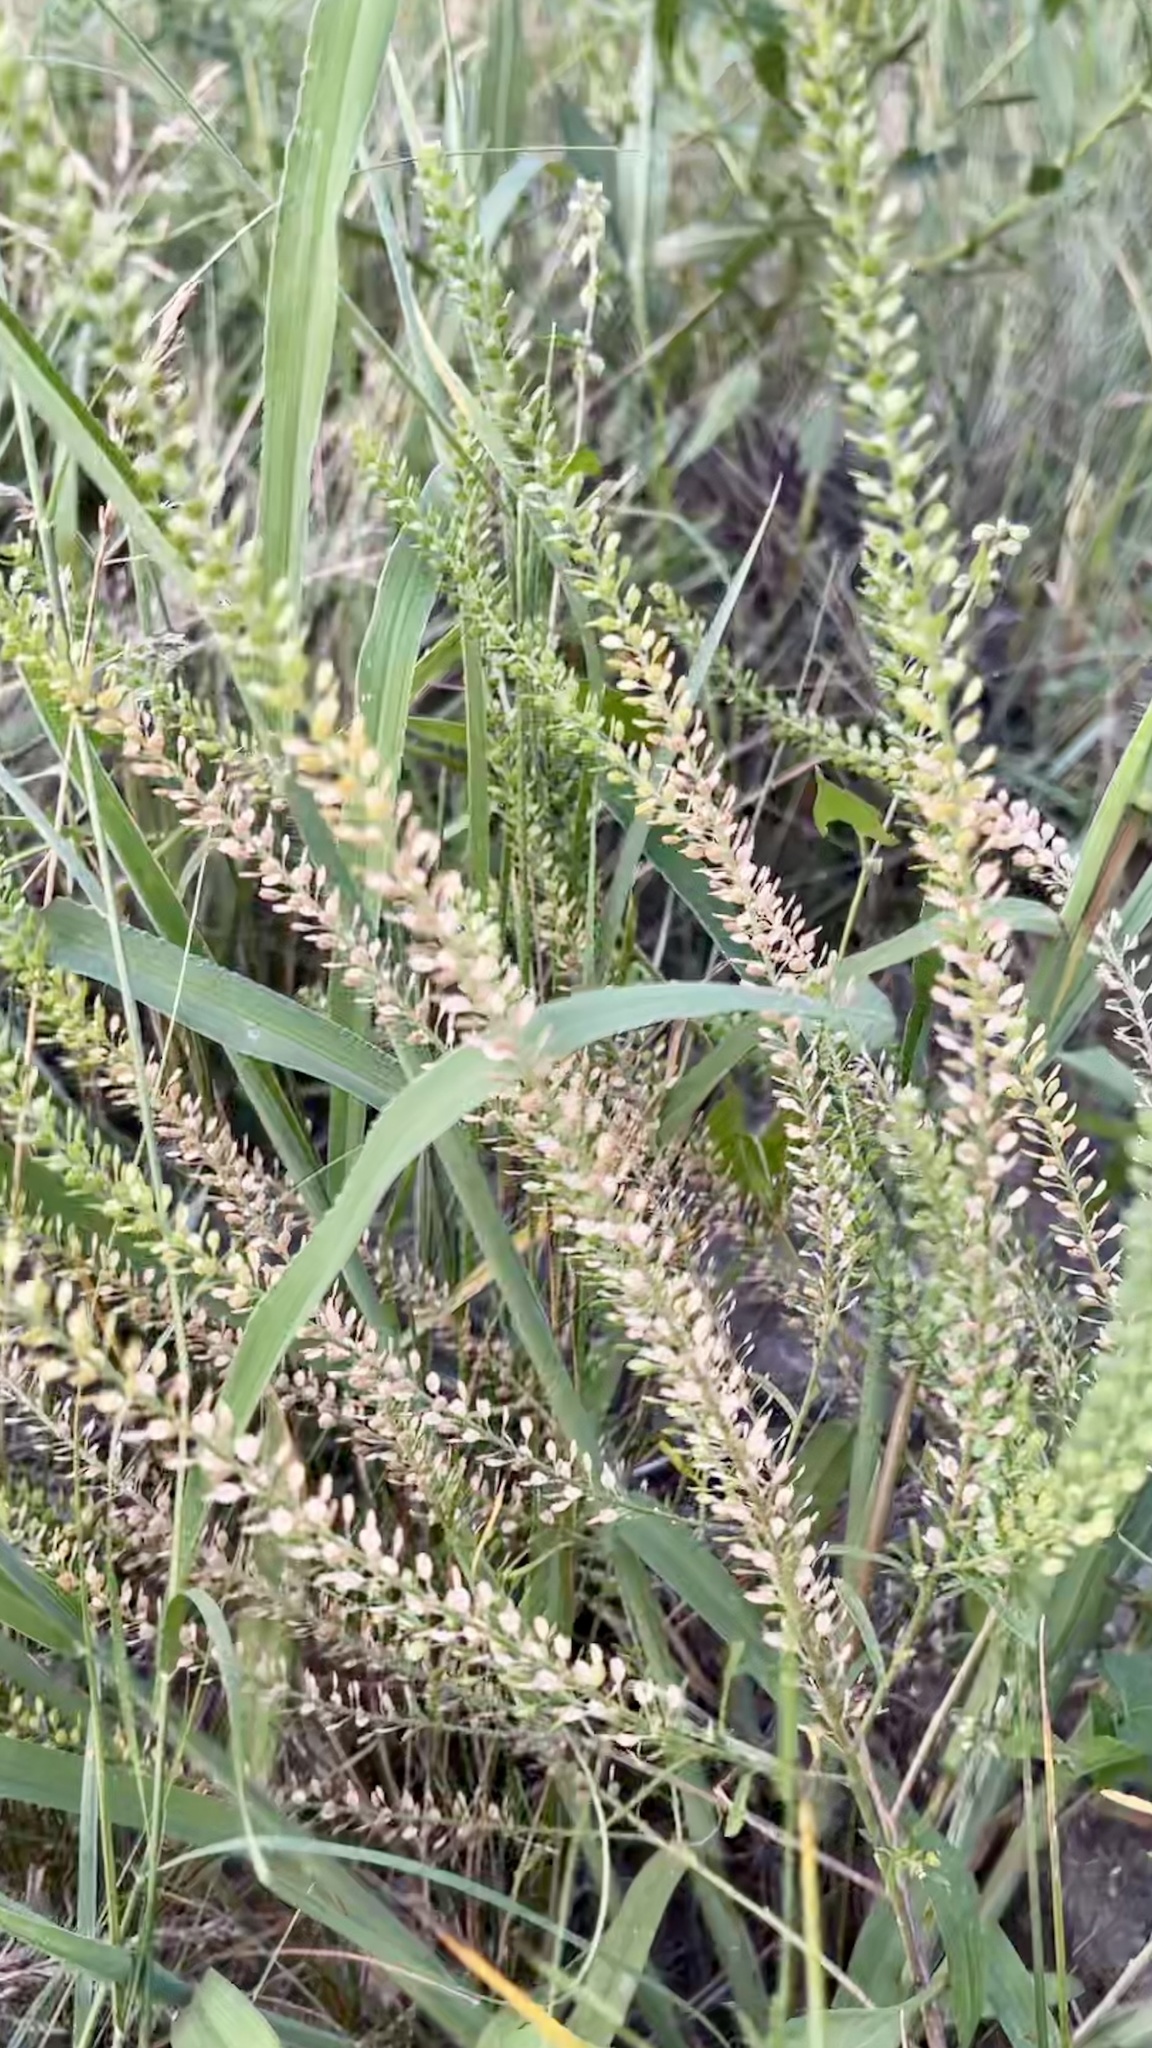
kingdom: Plantae
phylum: Tracheophyta
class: Magnoliopsida
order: Brassicales
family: Brassicaceae
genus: Lepidium
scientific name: Lepidium densiflorum
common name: Miner's pepperwort
